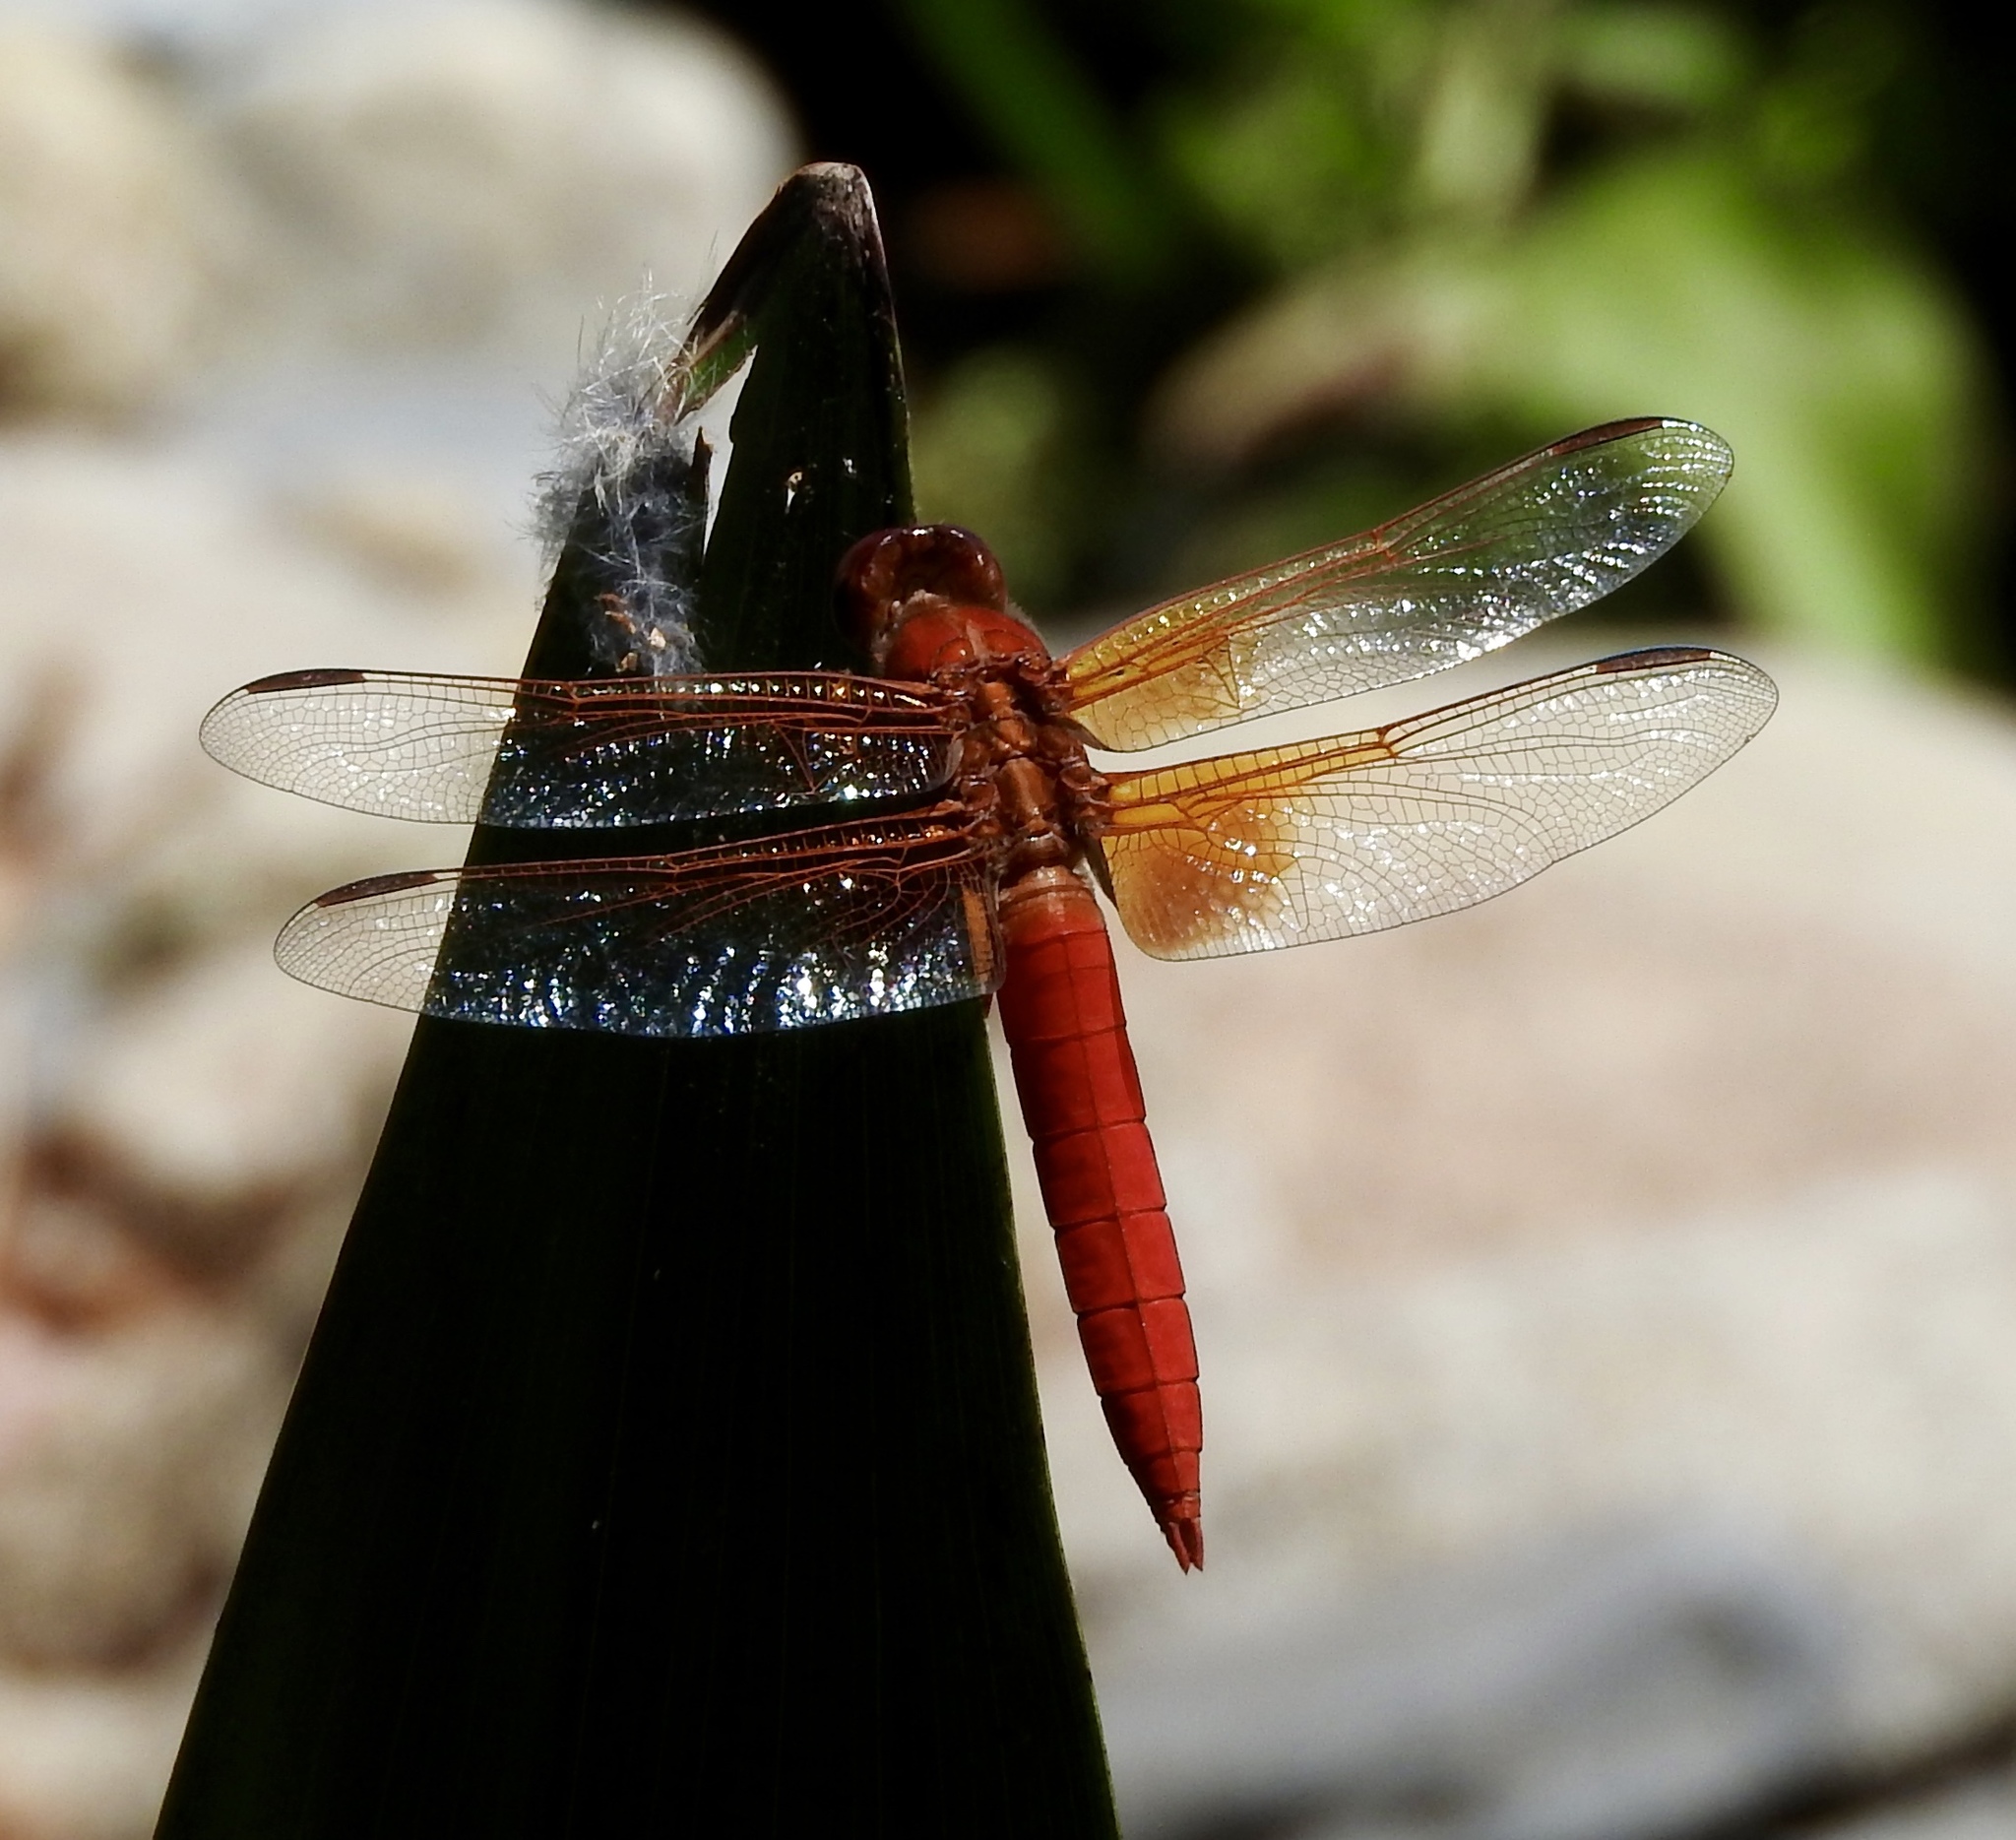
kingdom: Animalia
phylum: Arthropoda
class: Insecta
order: Odonata
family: Libellulidae
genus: Libellula
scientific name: Libellula croceipennis
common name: Neon skimmer
